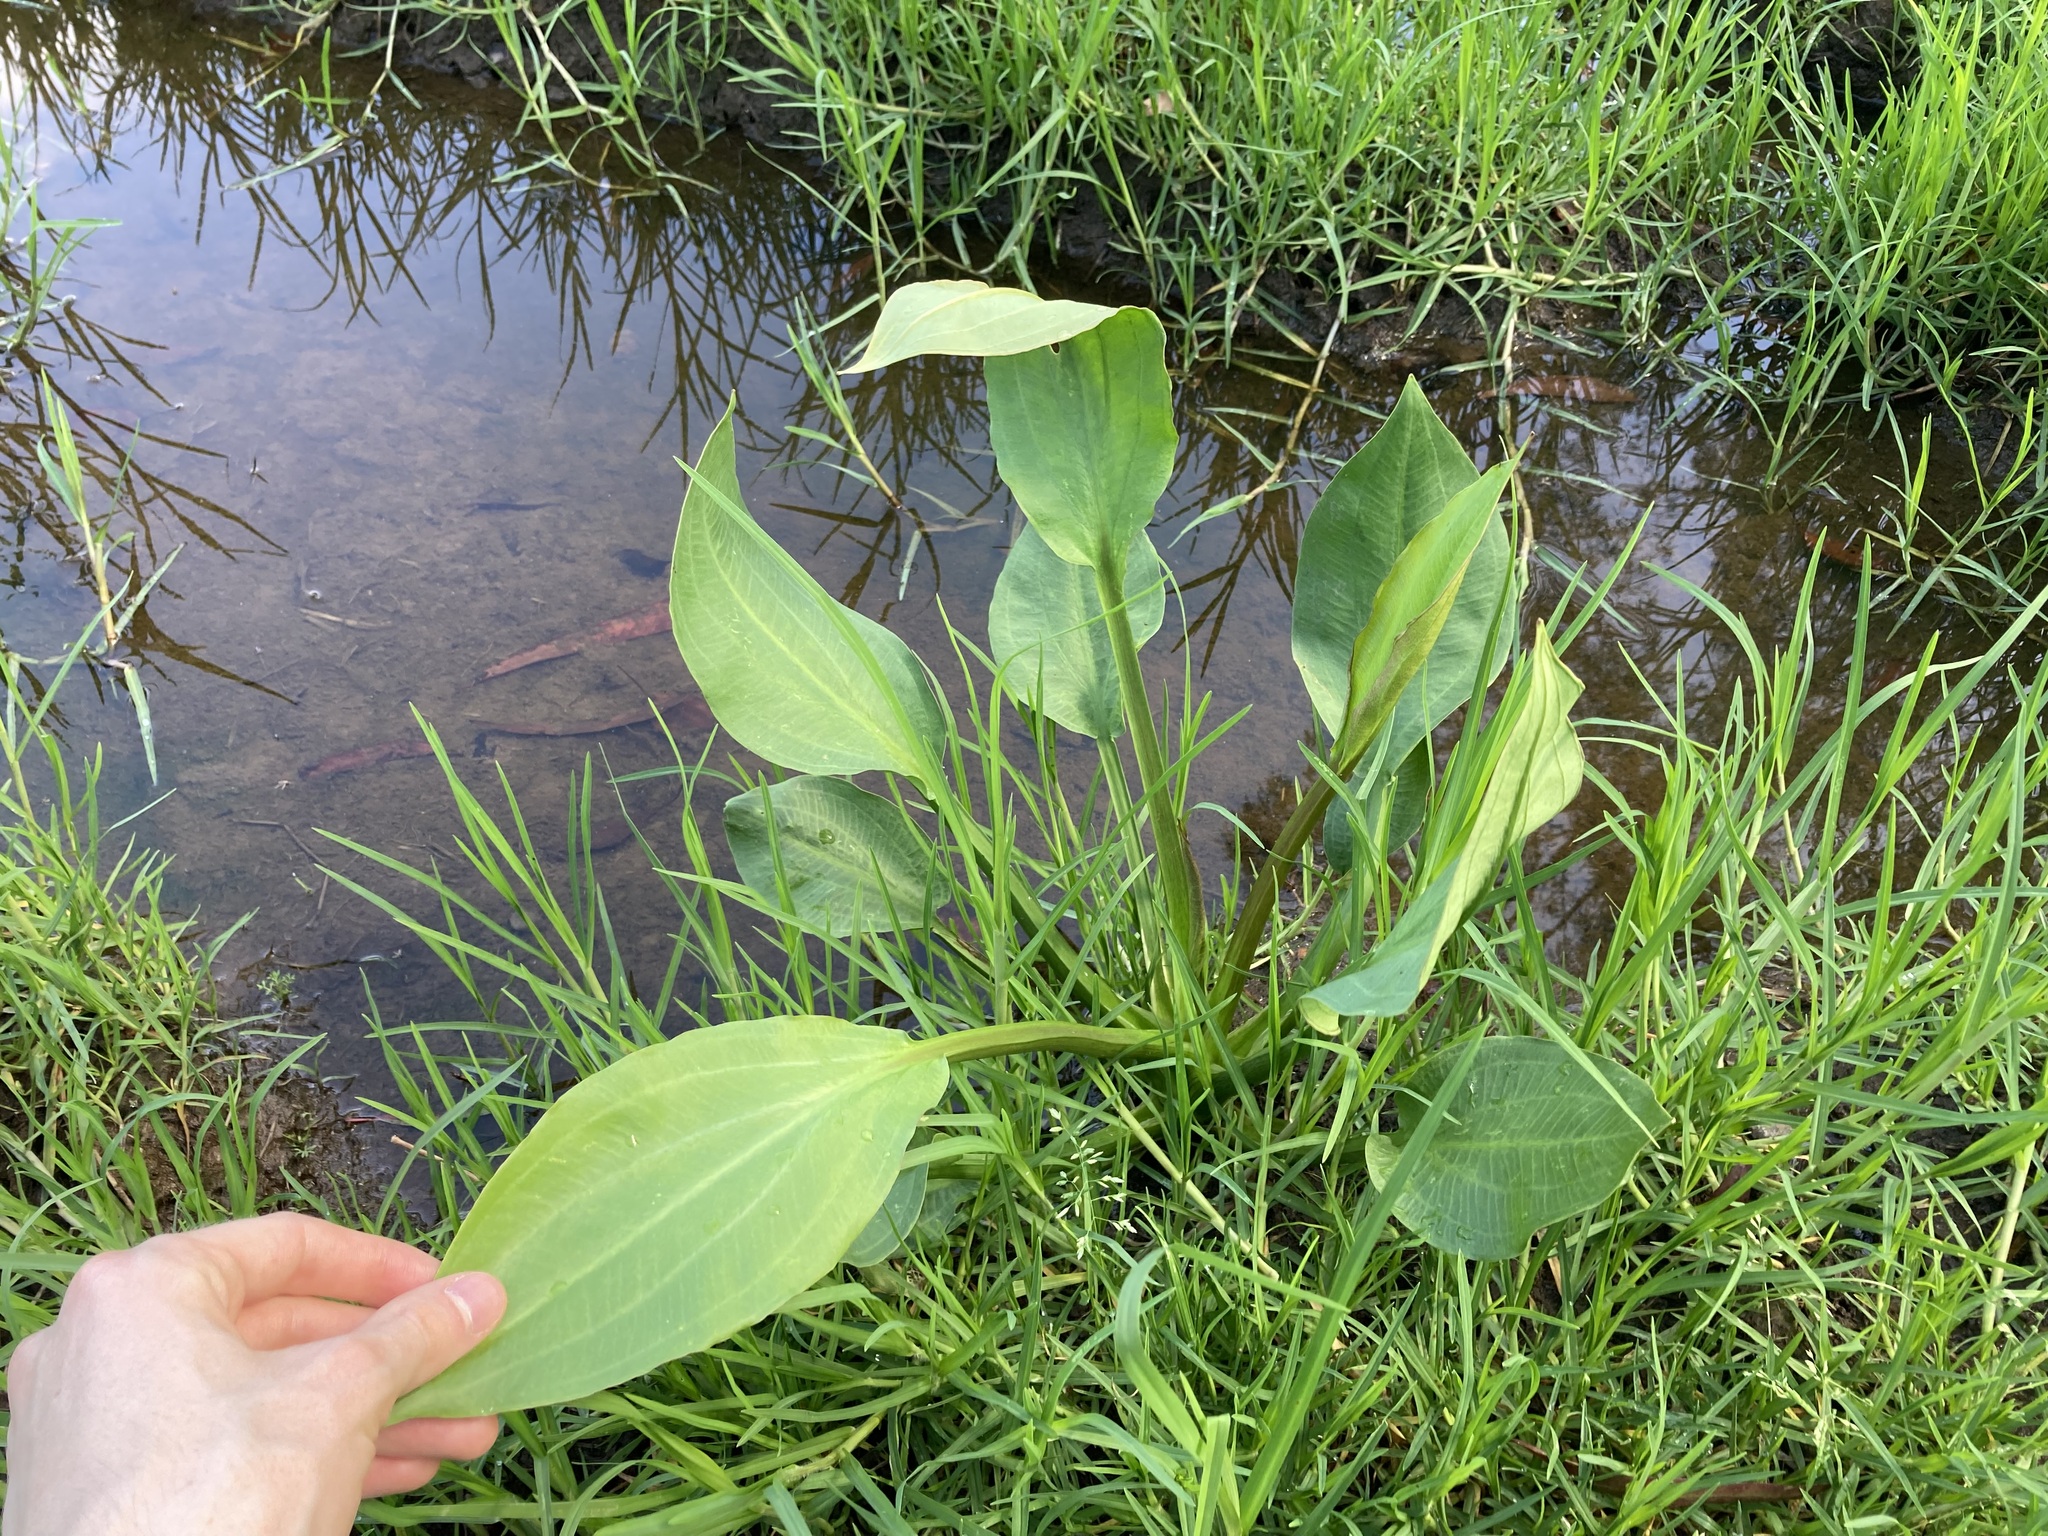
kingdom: Plantae
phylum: Tracheophyta
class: Liliopsida
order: Alismatales
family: Alismataceae
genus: Alisma
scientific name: Alisma plantago-aquatica
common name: Water-plantain
